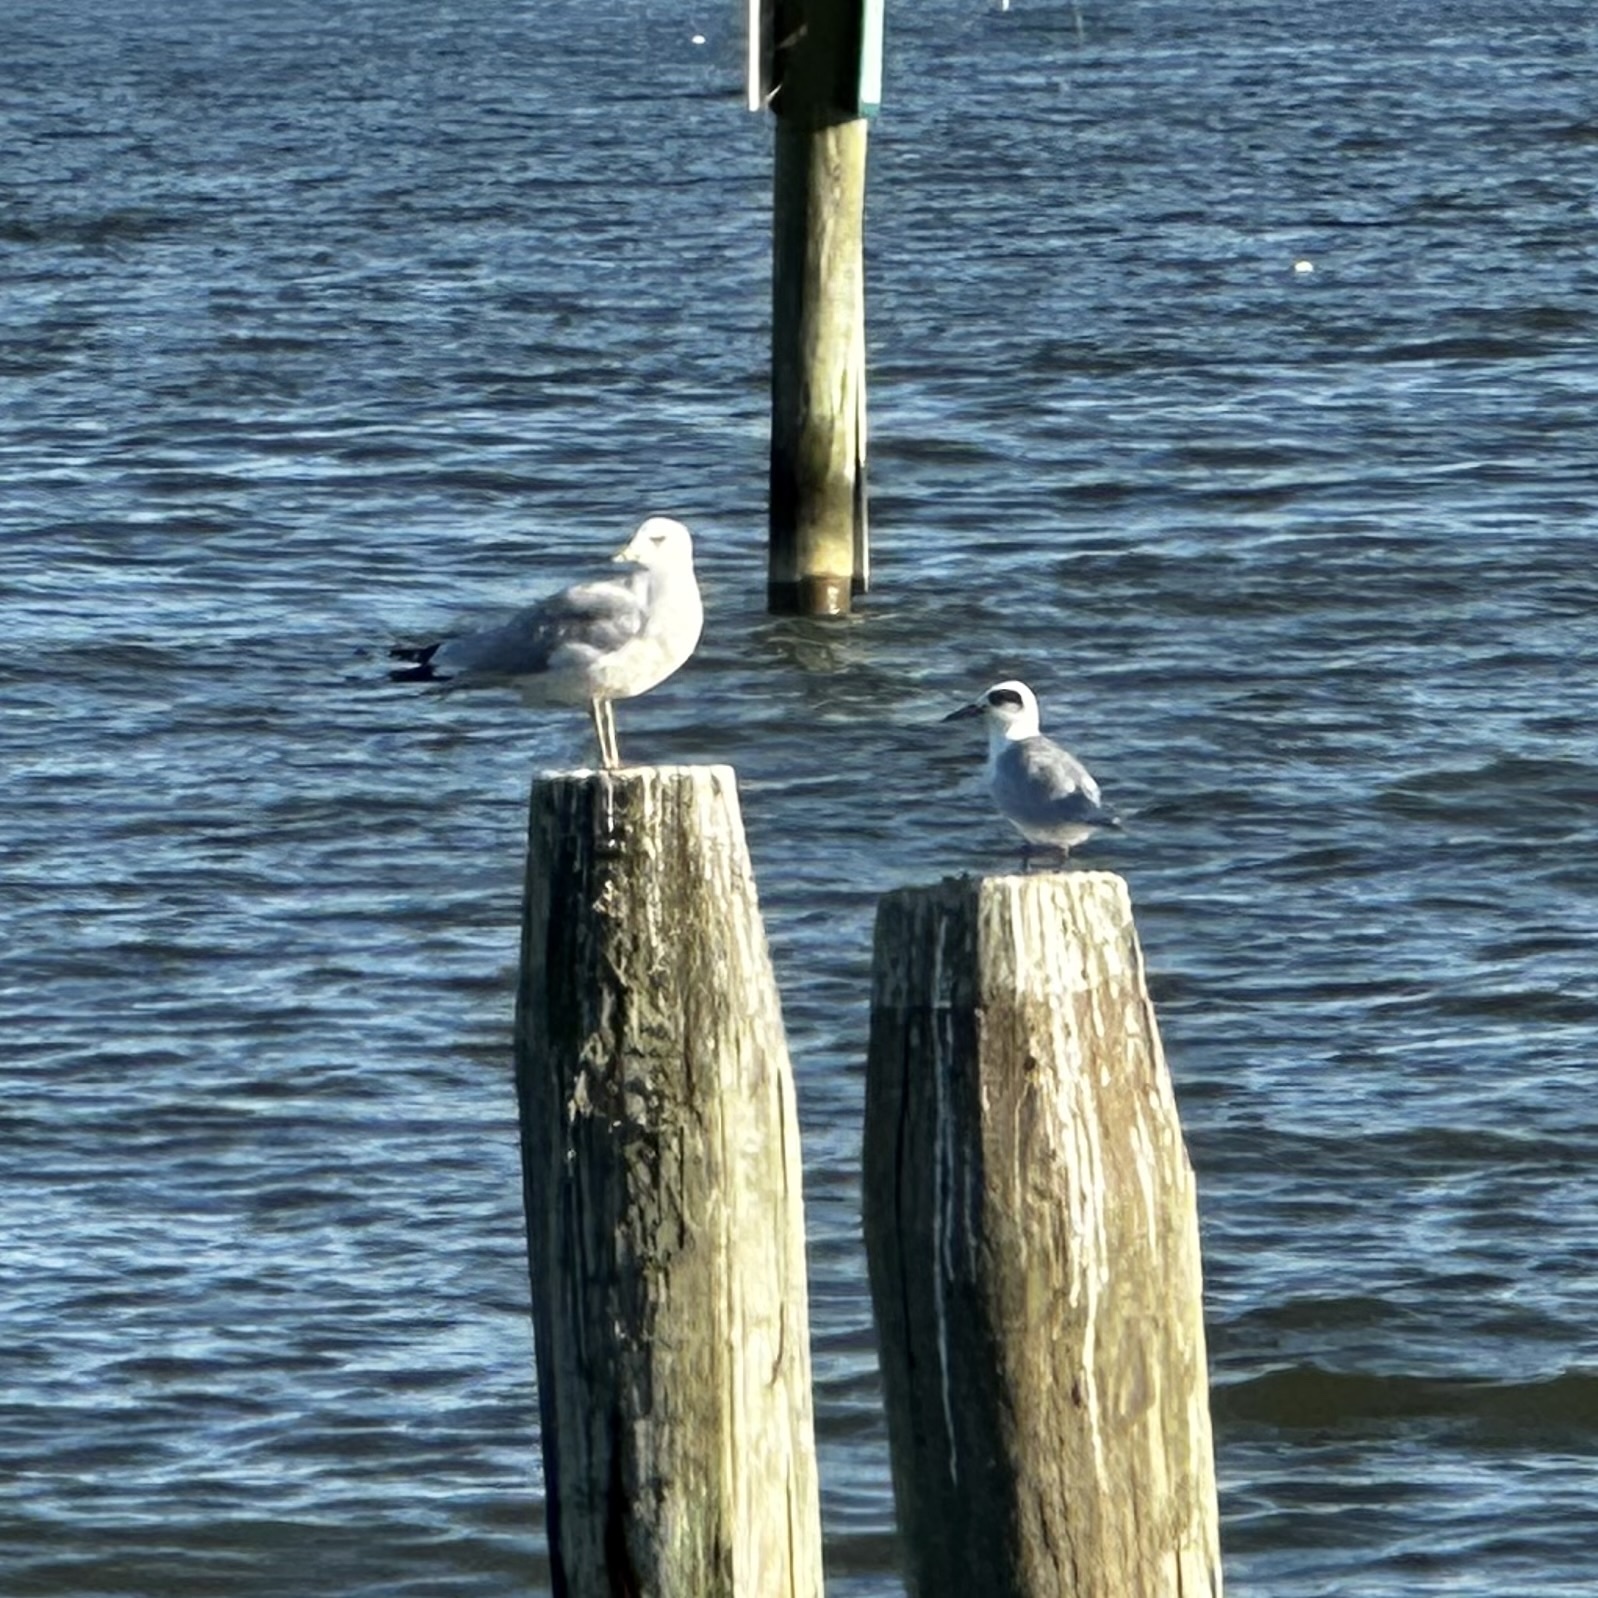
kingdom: Animalia
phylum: Chordata
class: Aves
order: Charadriiformes
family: Laridae
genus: Sterna
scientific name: Sterna forsteri
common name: Forster's tern
